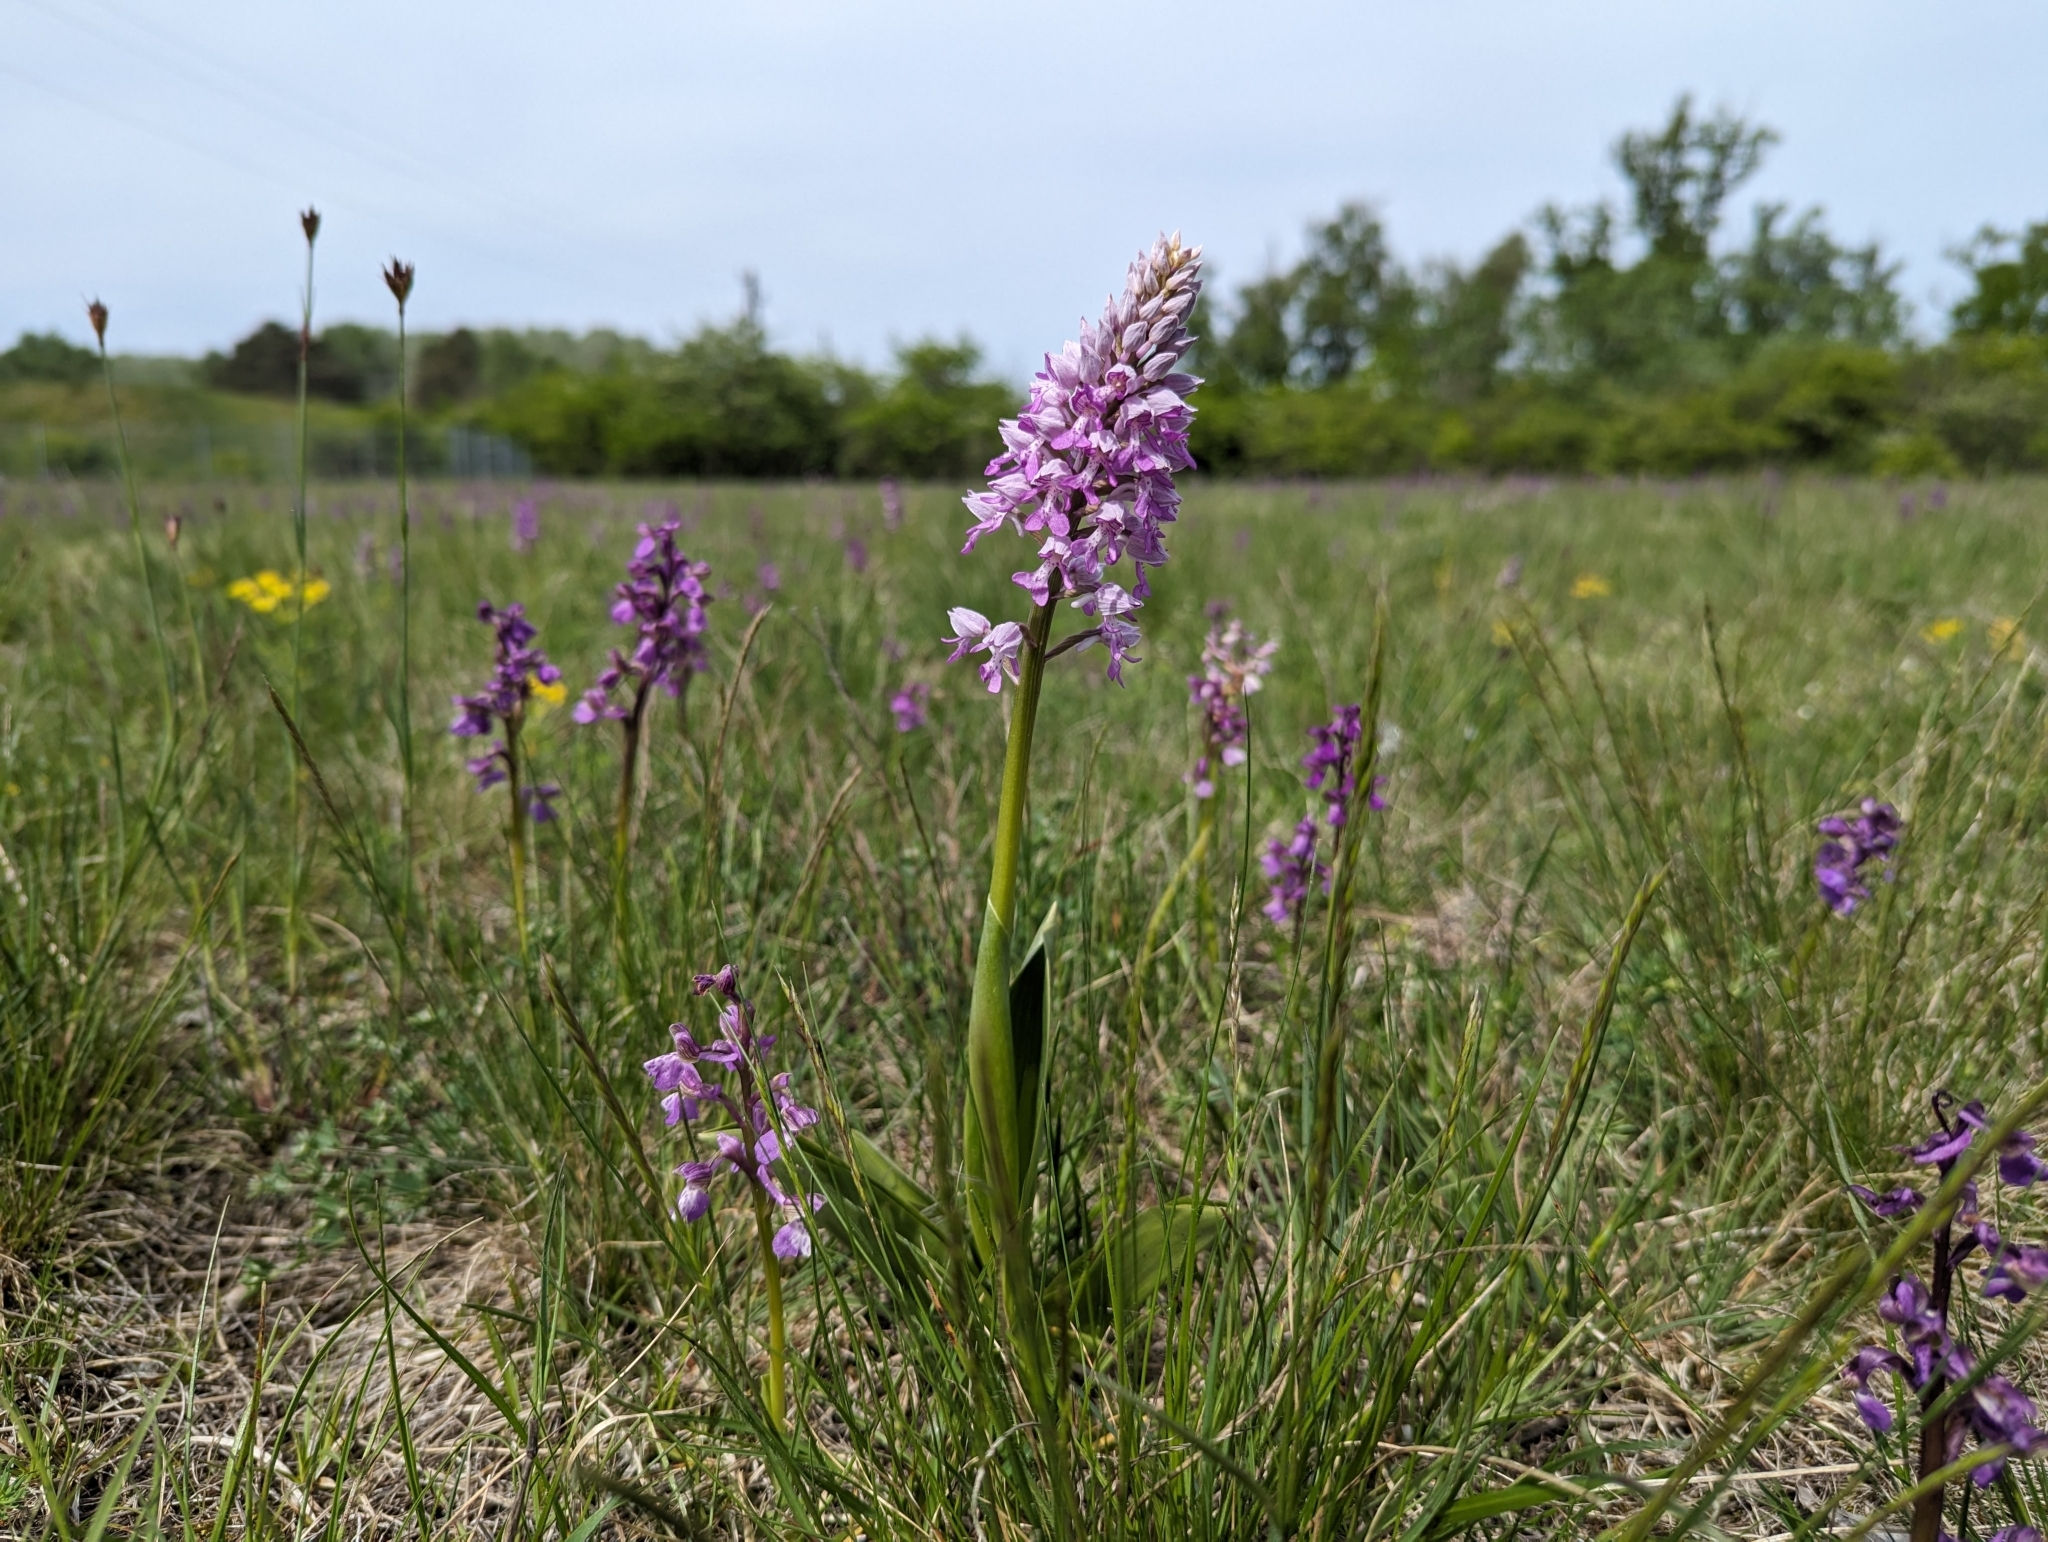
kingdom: Plantae
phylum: Tracheophyta
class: Liliopsida
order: Asparagales
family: Orchidaceae
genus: Orchis
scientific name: Orchis militaris
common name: Military orchid
